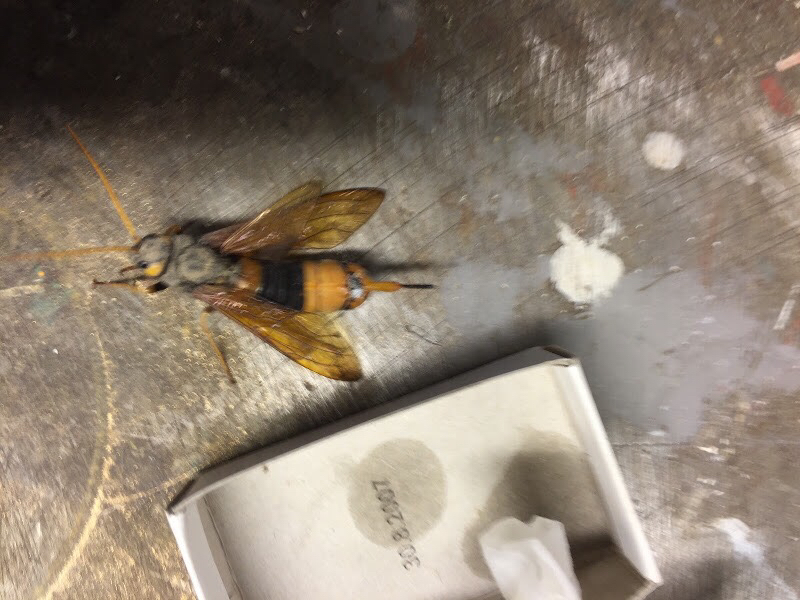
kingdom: Animalia
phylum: Arthropoda
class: Insecta
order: Hymenoptera
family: Siricidae
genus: Urocerus
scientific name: Urocerus gigas
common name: Giant woodwasp
